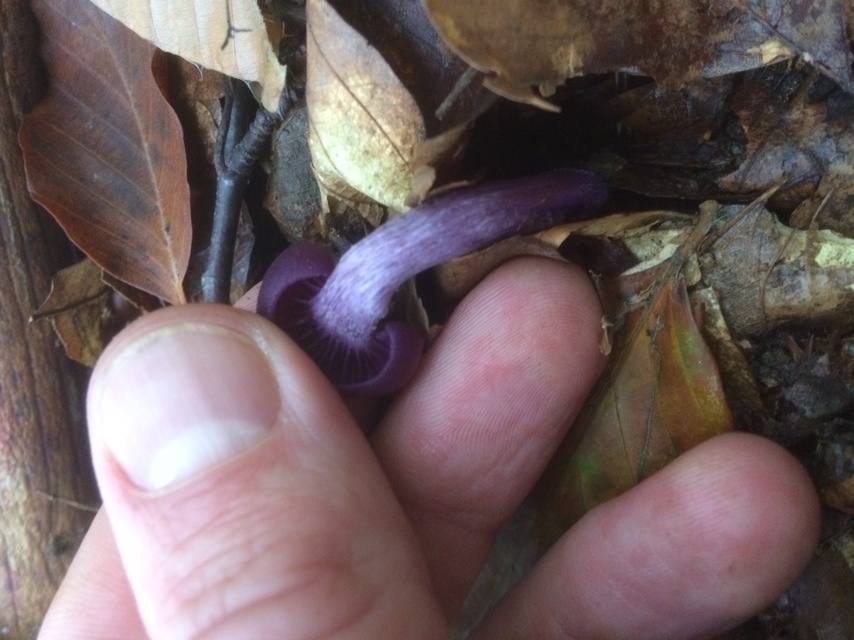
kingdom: Fungi
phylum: Basidiomycota
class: Agaricomycetes
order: Agaricales
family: Hydnangiaceae
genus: Laccaria
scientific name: Laccaria amethystina
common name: Amethyst deceiver
